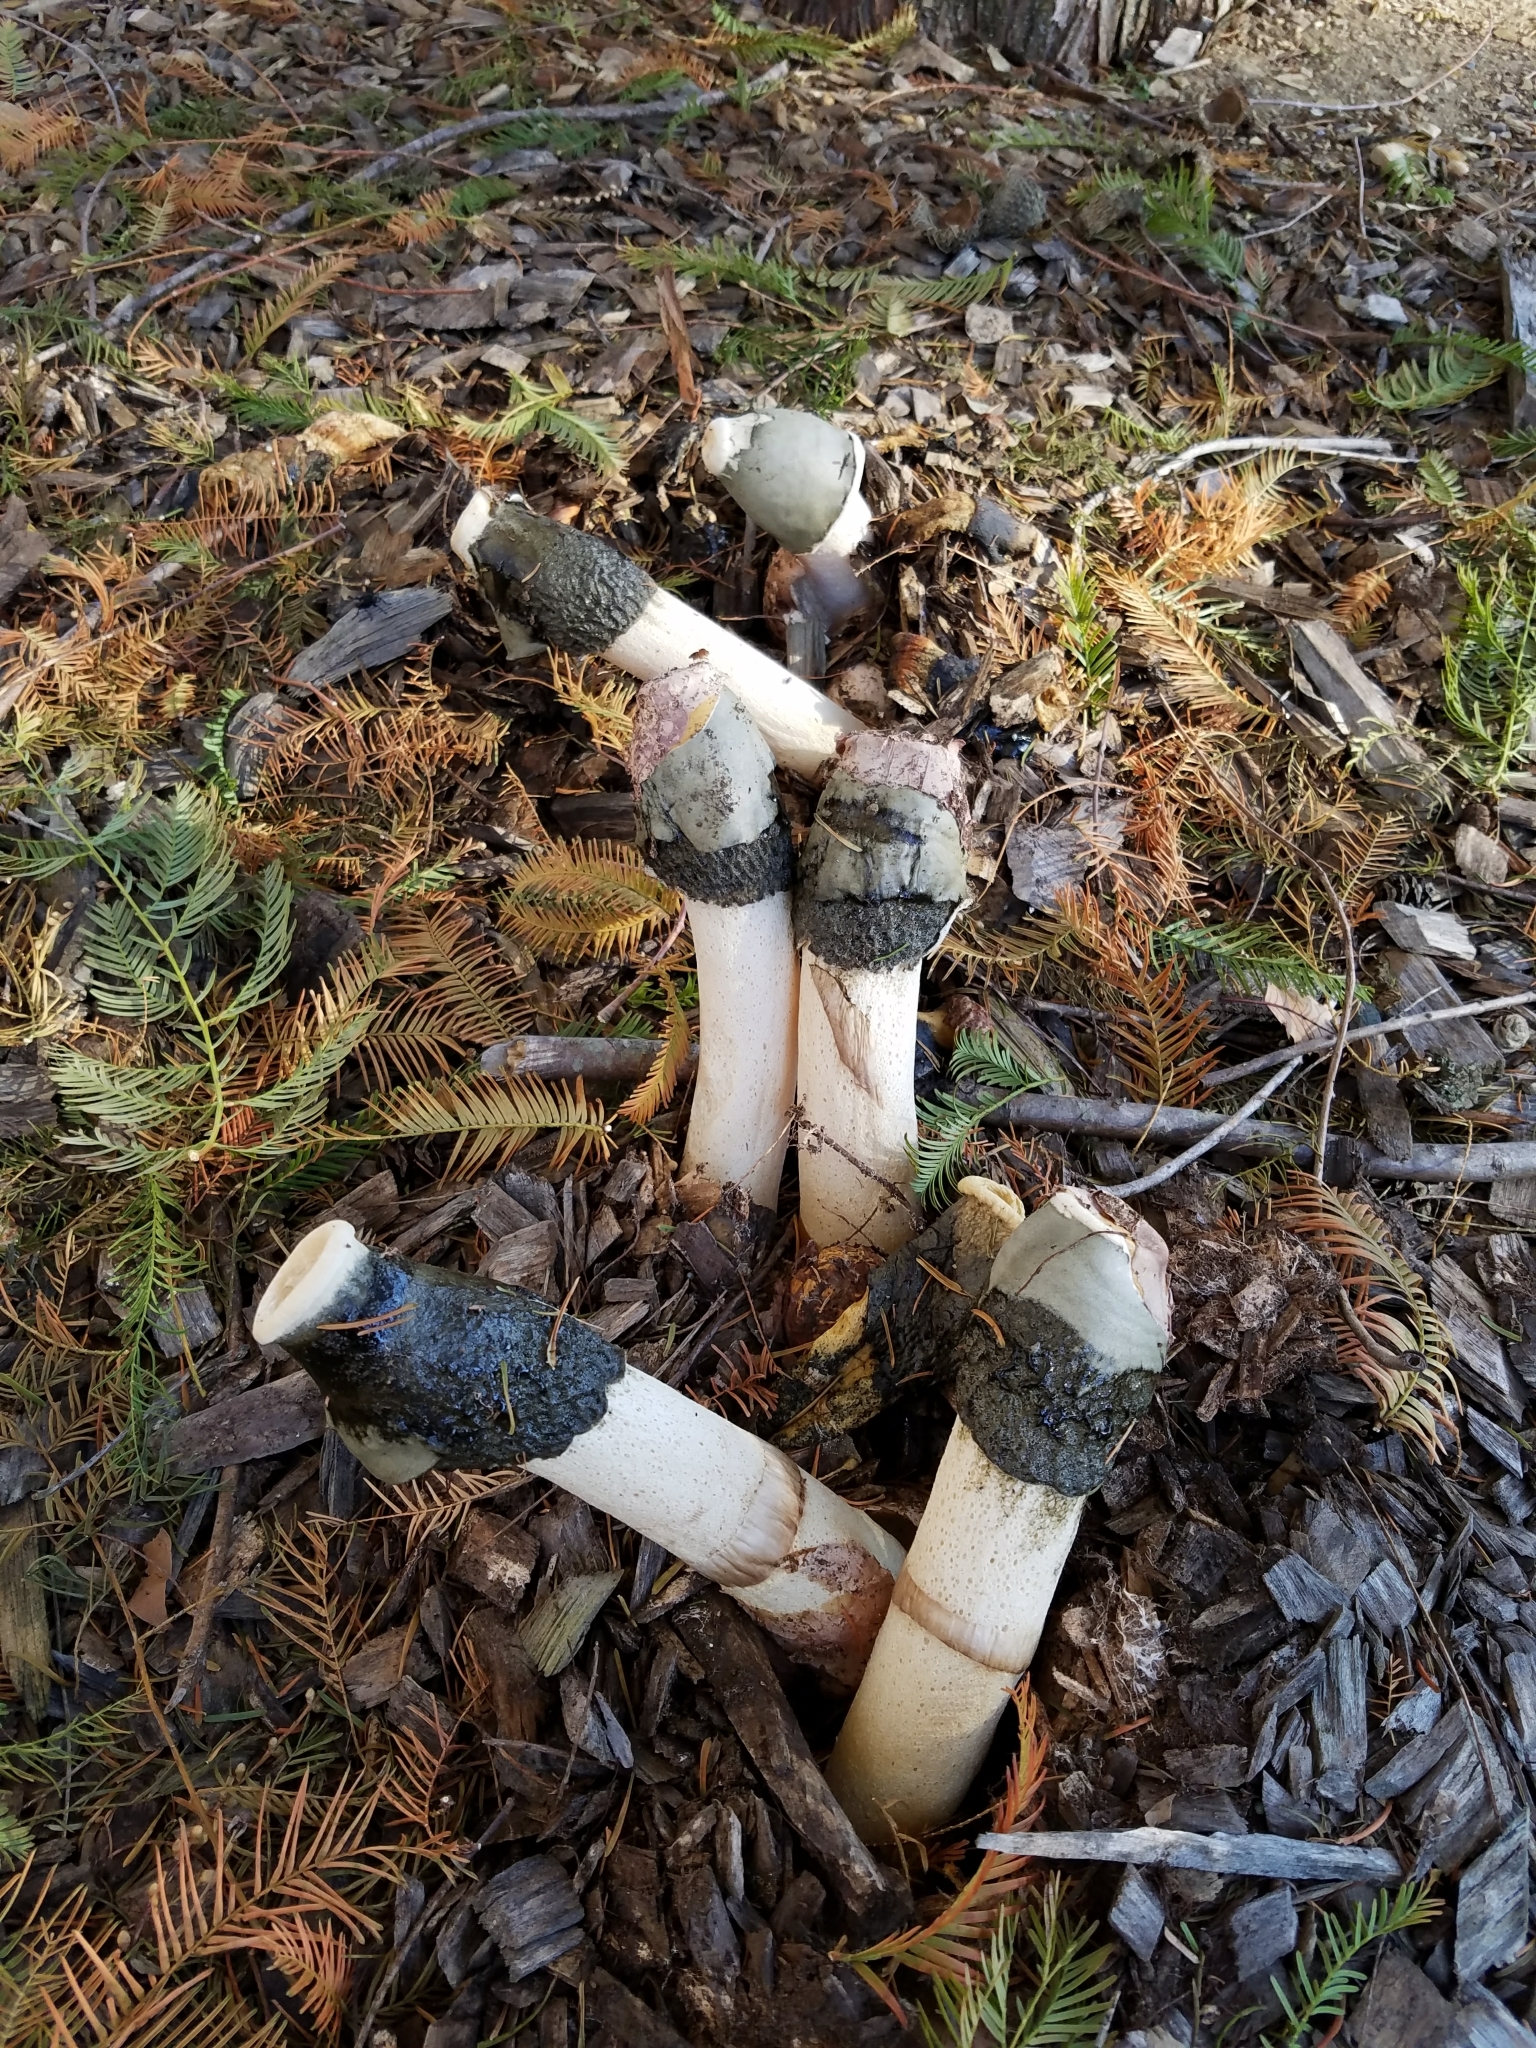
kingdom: Fungi
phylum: Basidiomycota
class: Agaricomycetes
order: Phallales
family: Phallaceae
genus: Phallus
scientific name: Phallus ravenelii
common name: Ravenel's stinkhorn
